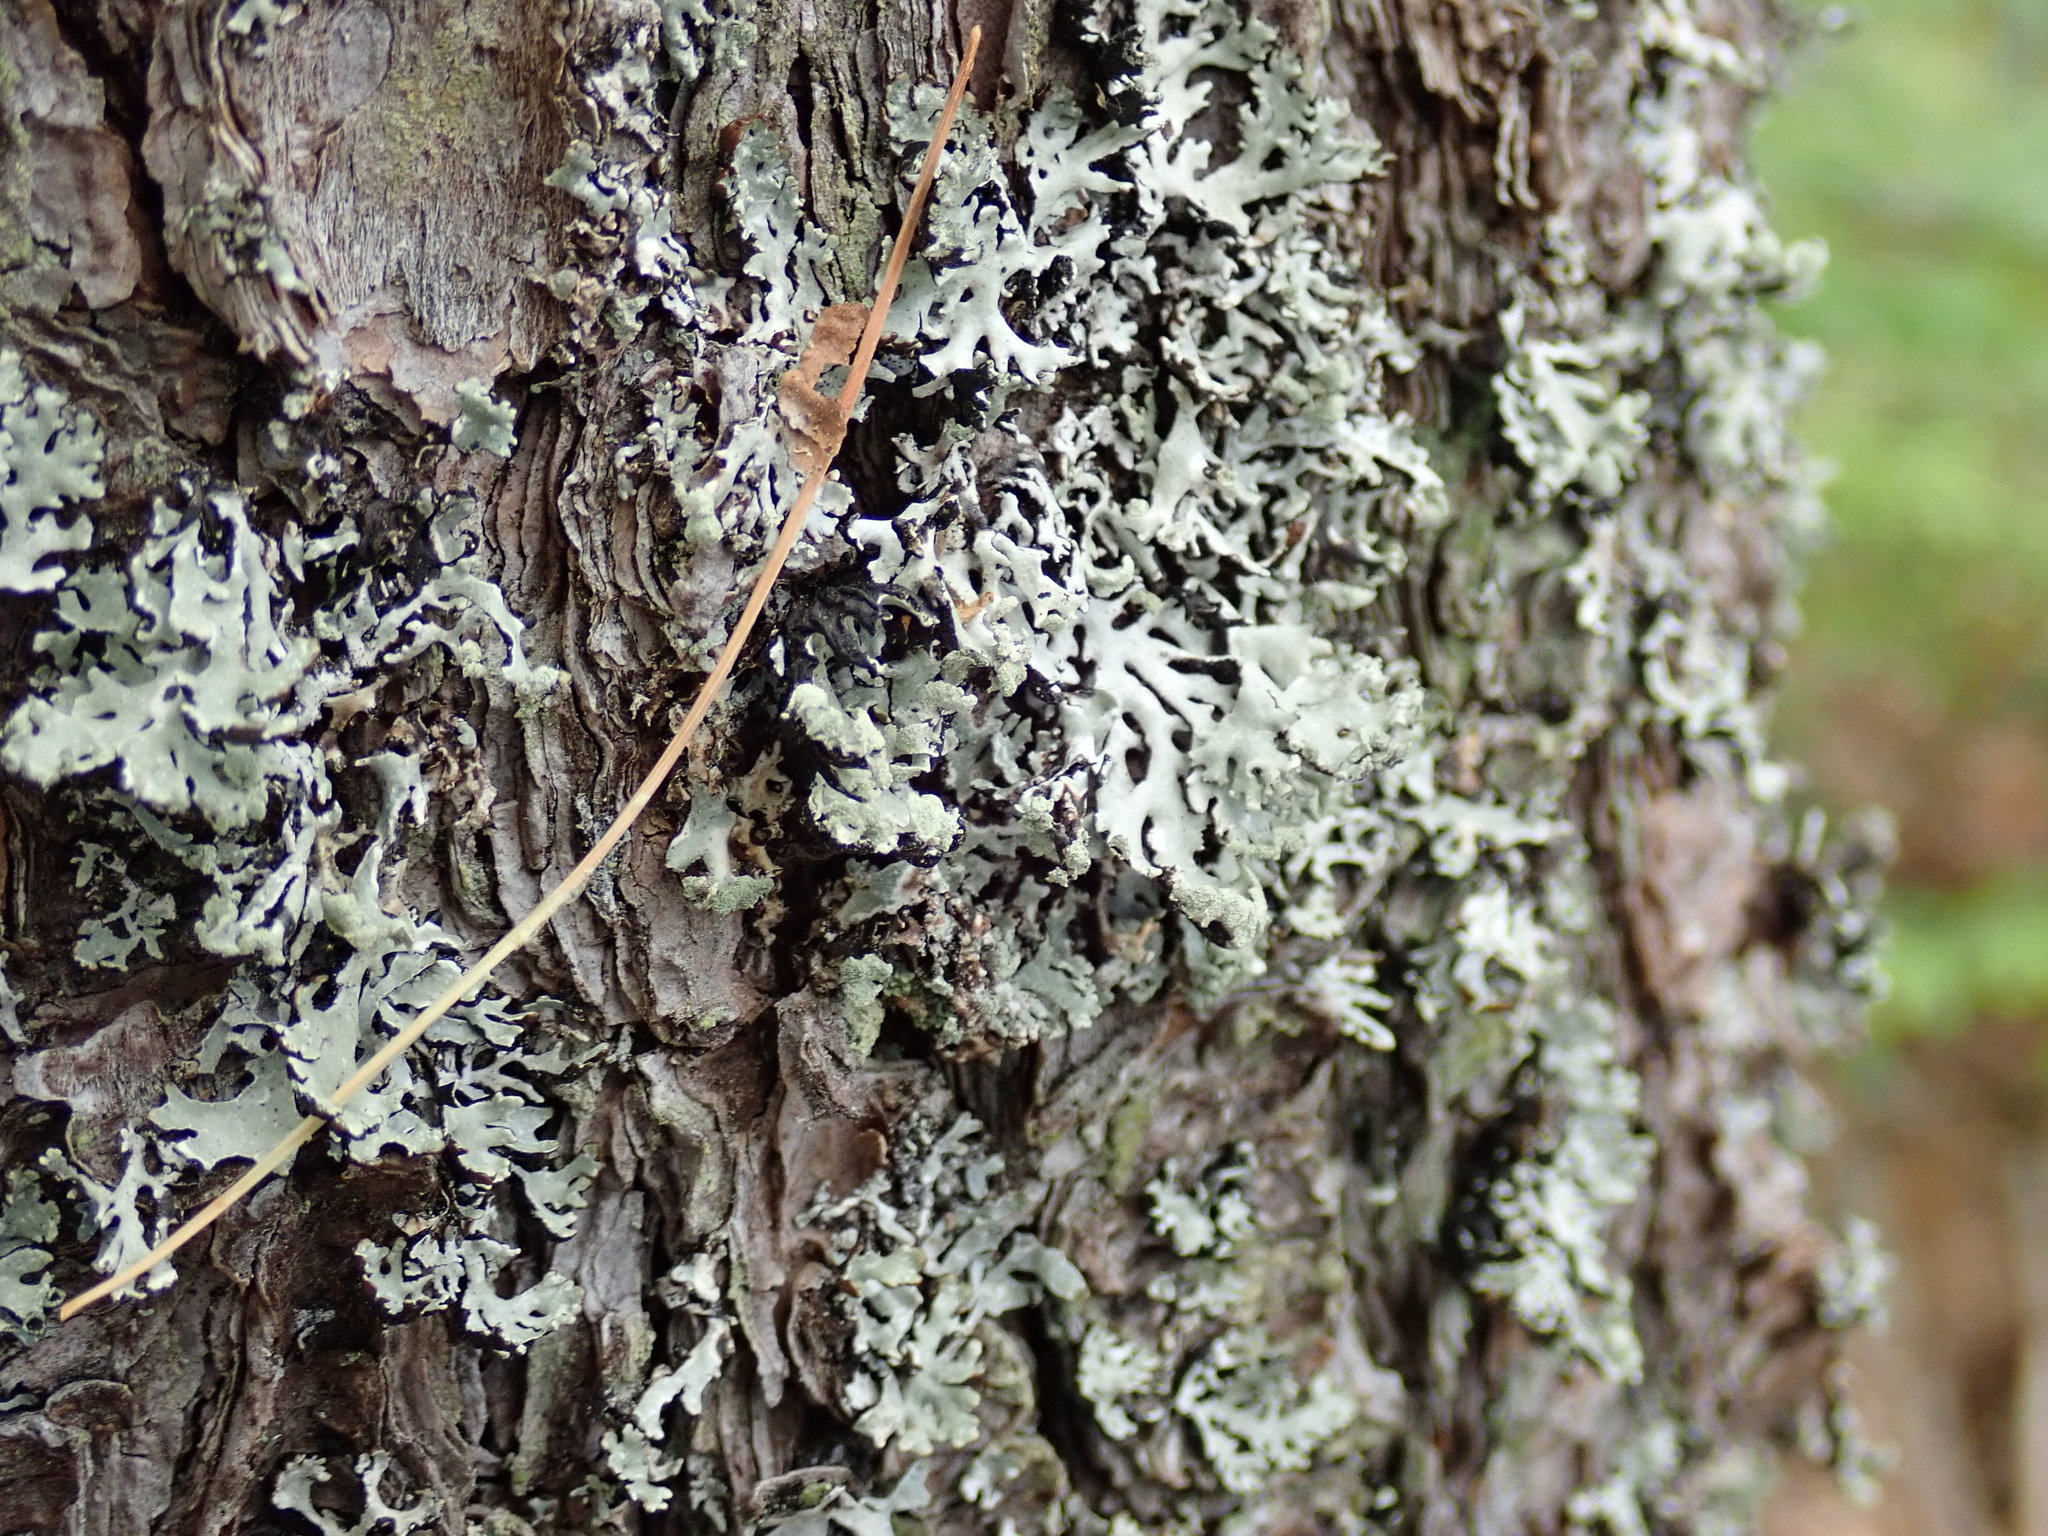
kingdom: Fungi
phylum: Ascomycota
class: Lecanoromycetes
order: Lecanorales
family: Parmeliaceae
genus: Hypogymnia
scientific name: Hypogymnia physodes
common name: Dark crottle
